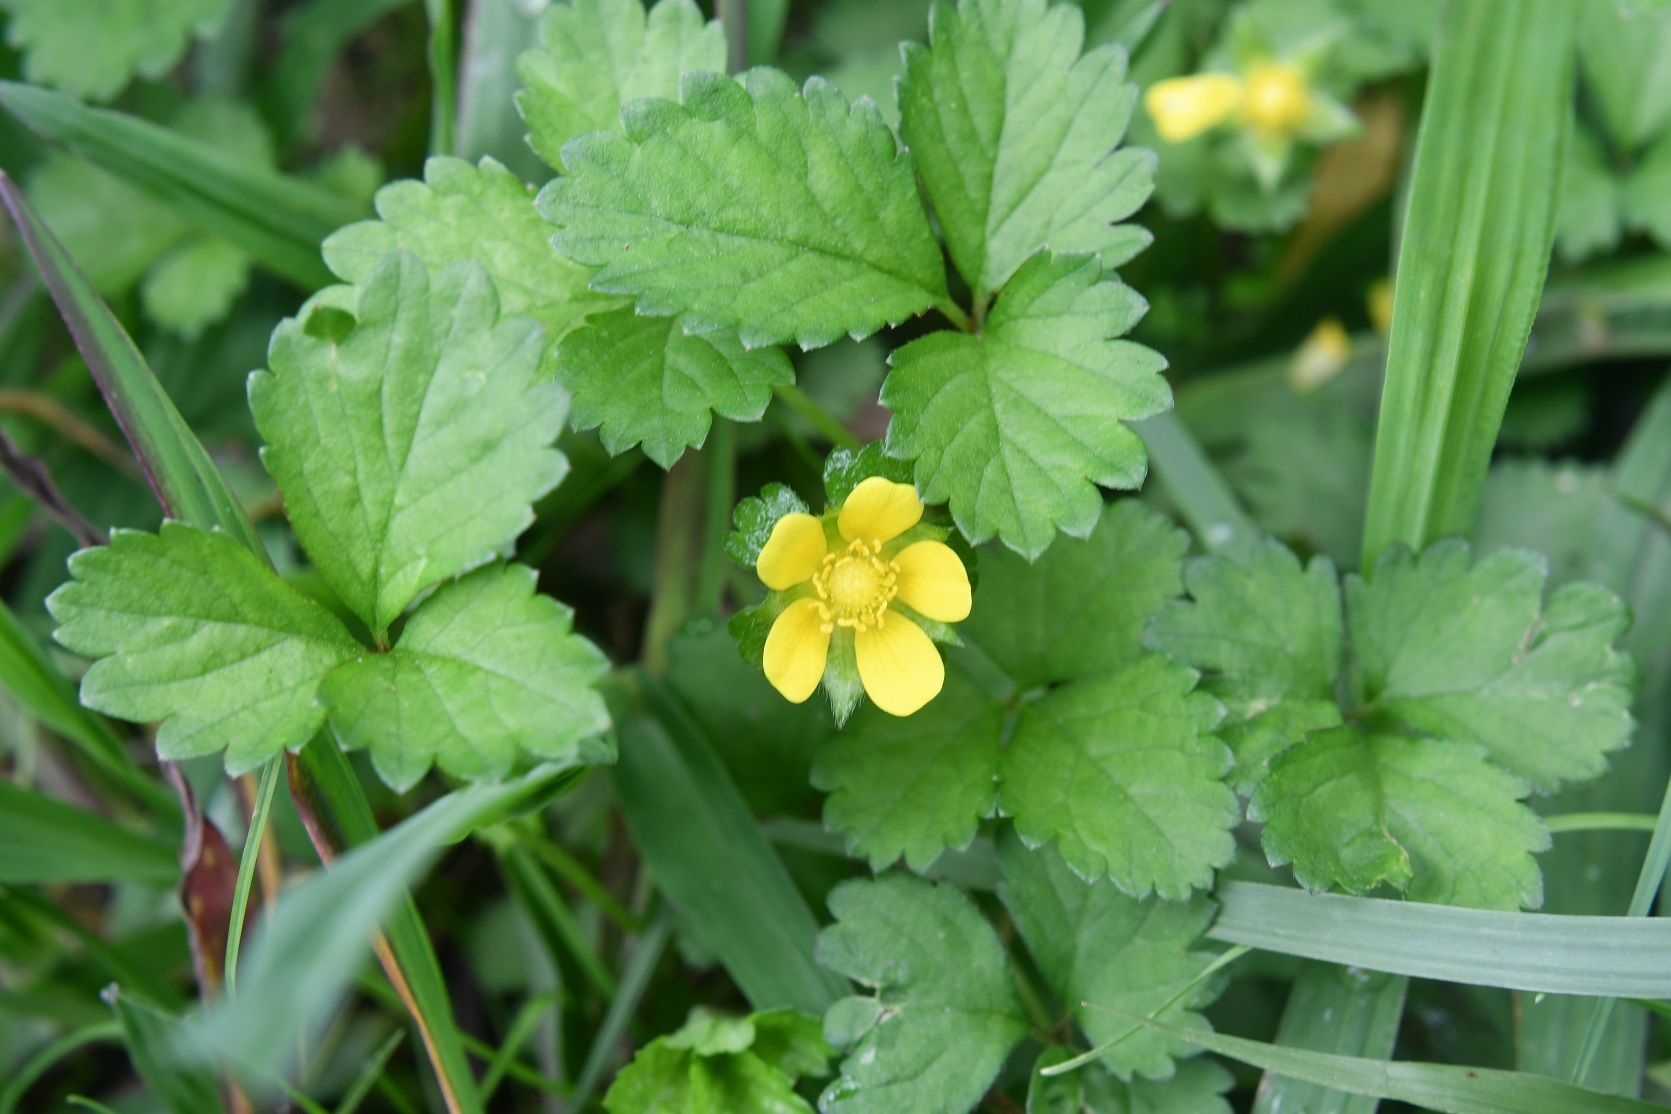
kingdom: Plantae
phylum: Tracheophyta
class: Magnoliopsida
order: Rosales
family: Rosaceae
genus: Potentilla
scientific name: Potentilla indica
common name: Yellow-flowered strawberry
